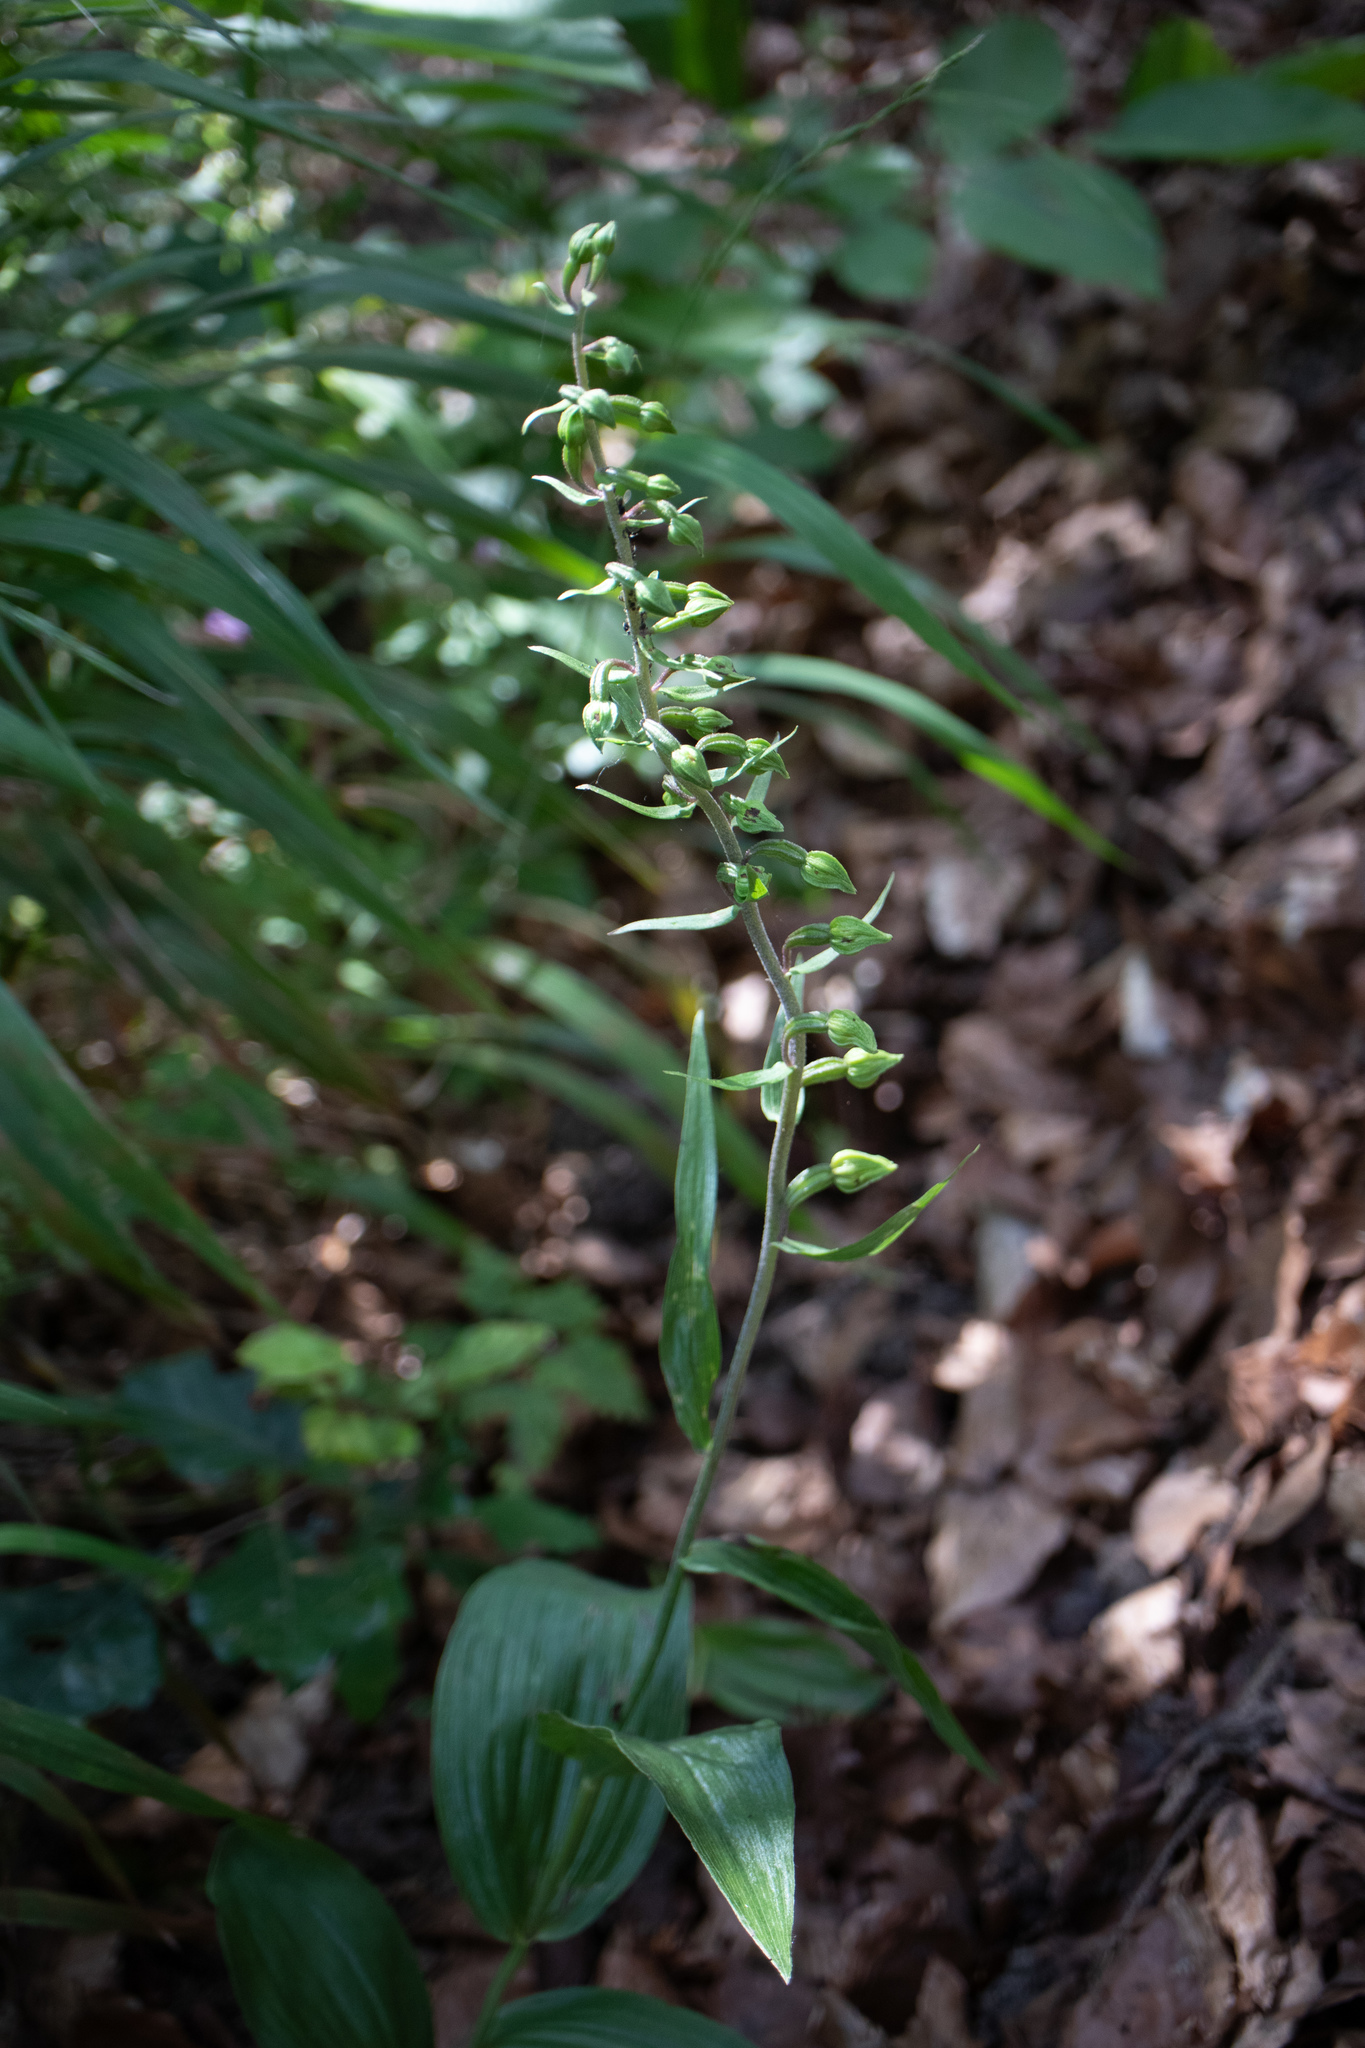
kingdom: Plantae
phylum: Tracheophyta
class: Liliopsida
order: Asparagales
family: Orchidaceae
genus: Epipactis
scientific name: Epipactis helleborine
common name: Broad-leaved helleborine
